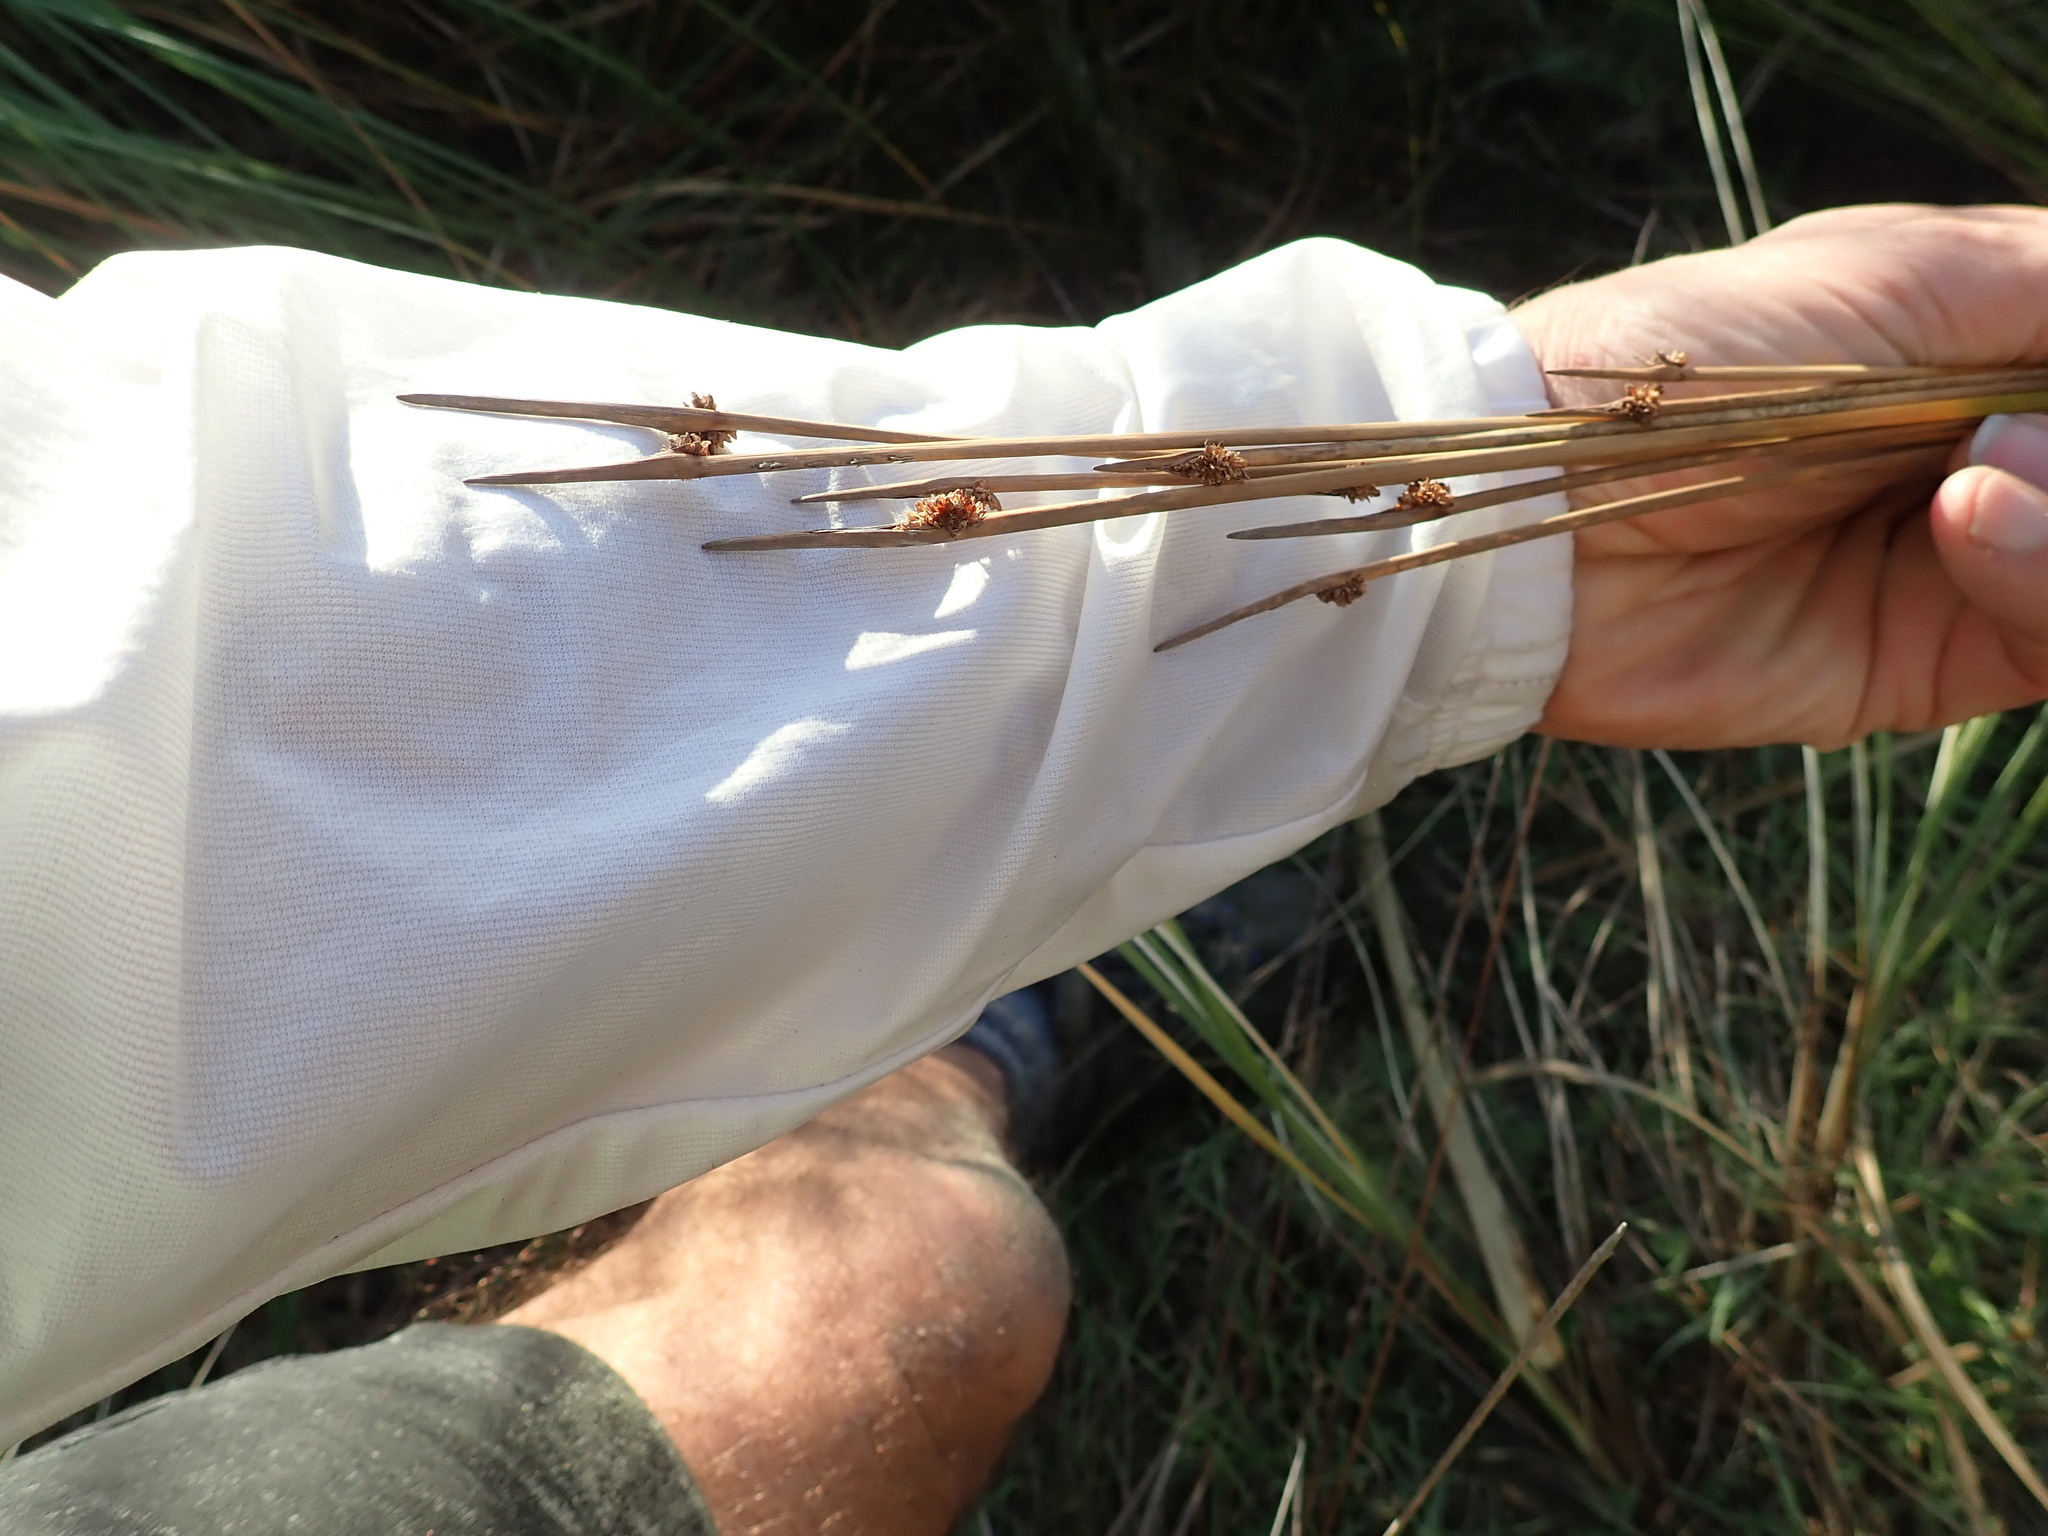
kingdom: Plantae
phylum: Tracheophyta
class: Liliopsida
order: Poales
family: Cyperaceae
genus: Ficinia
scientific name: Ficinia nodosa
